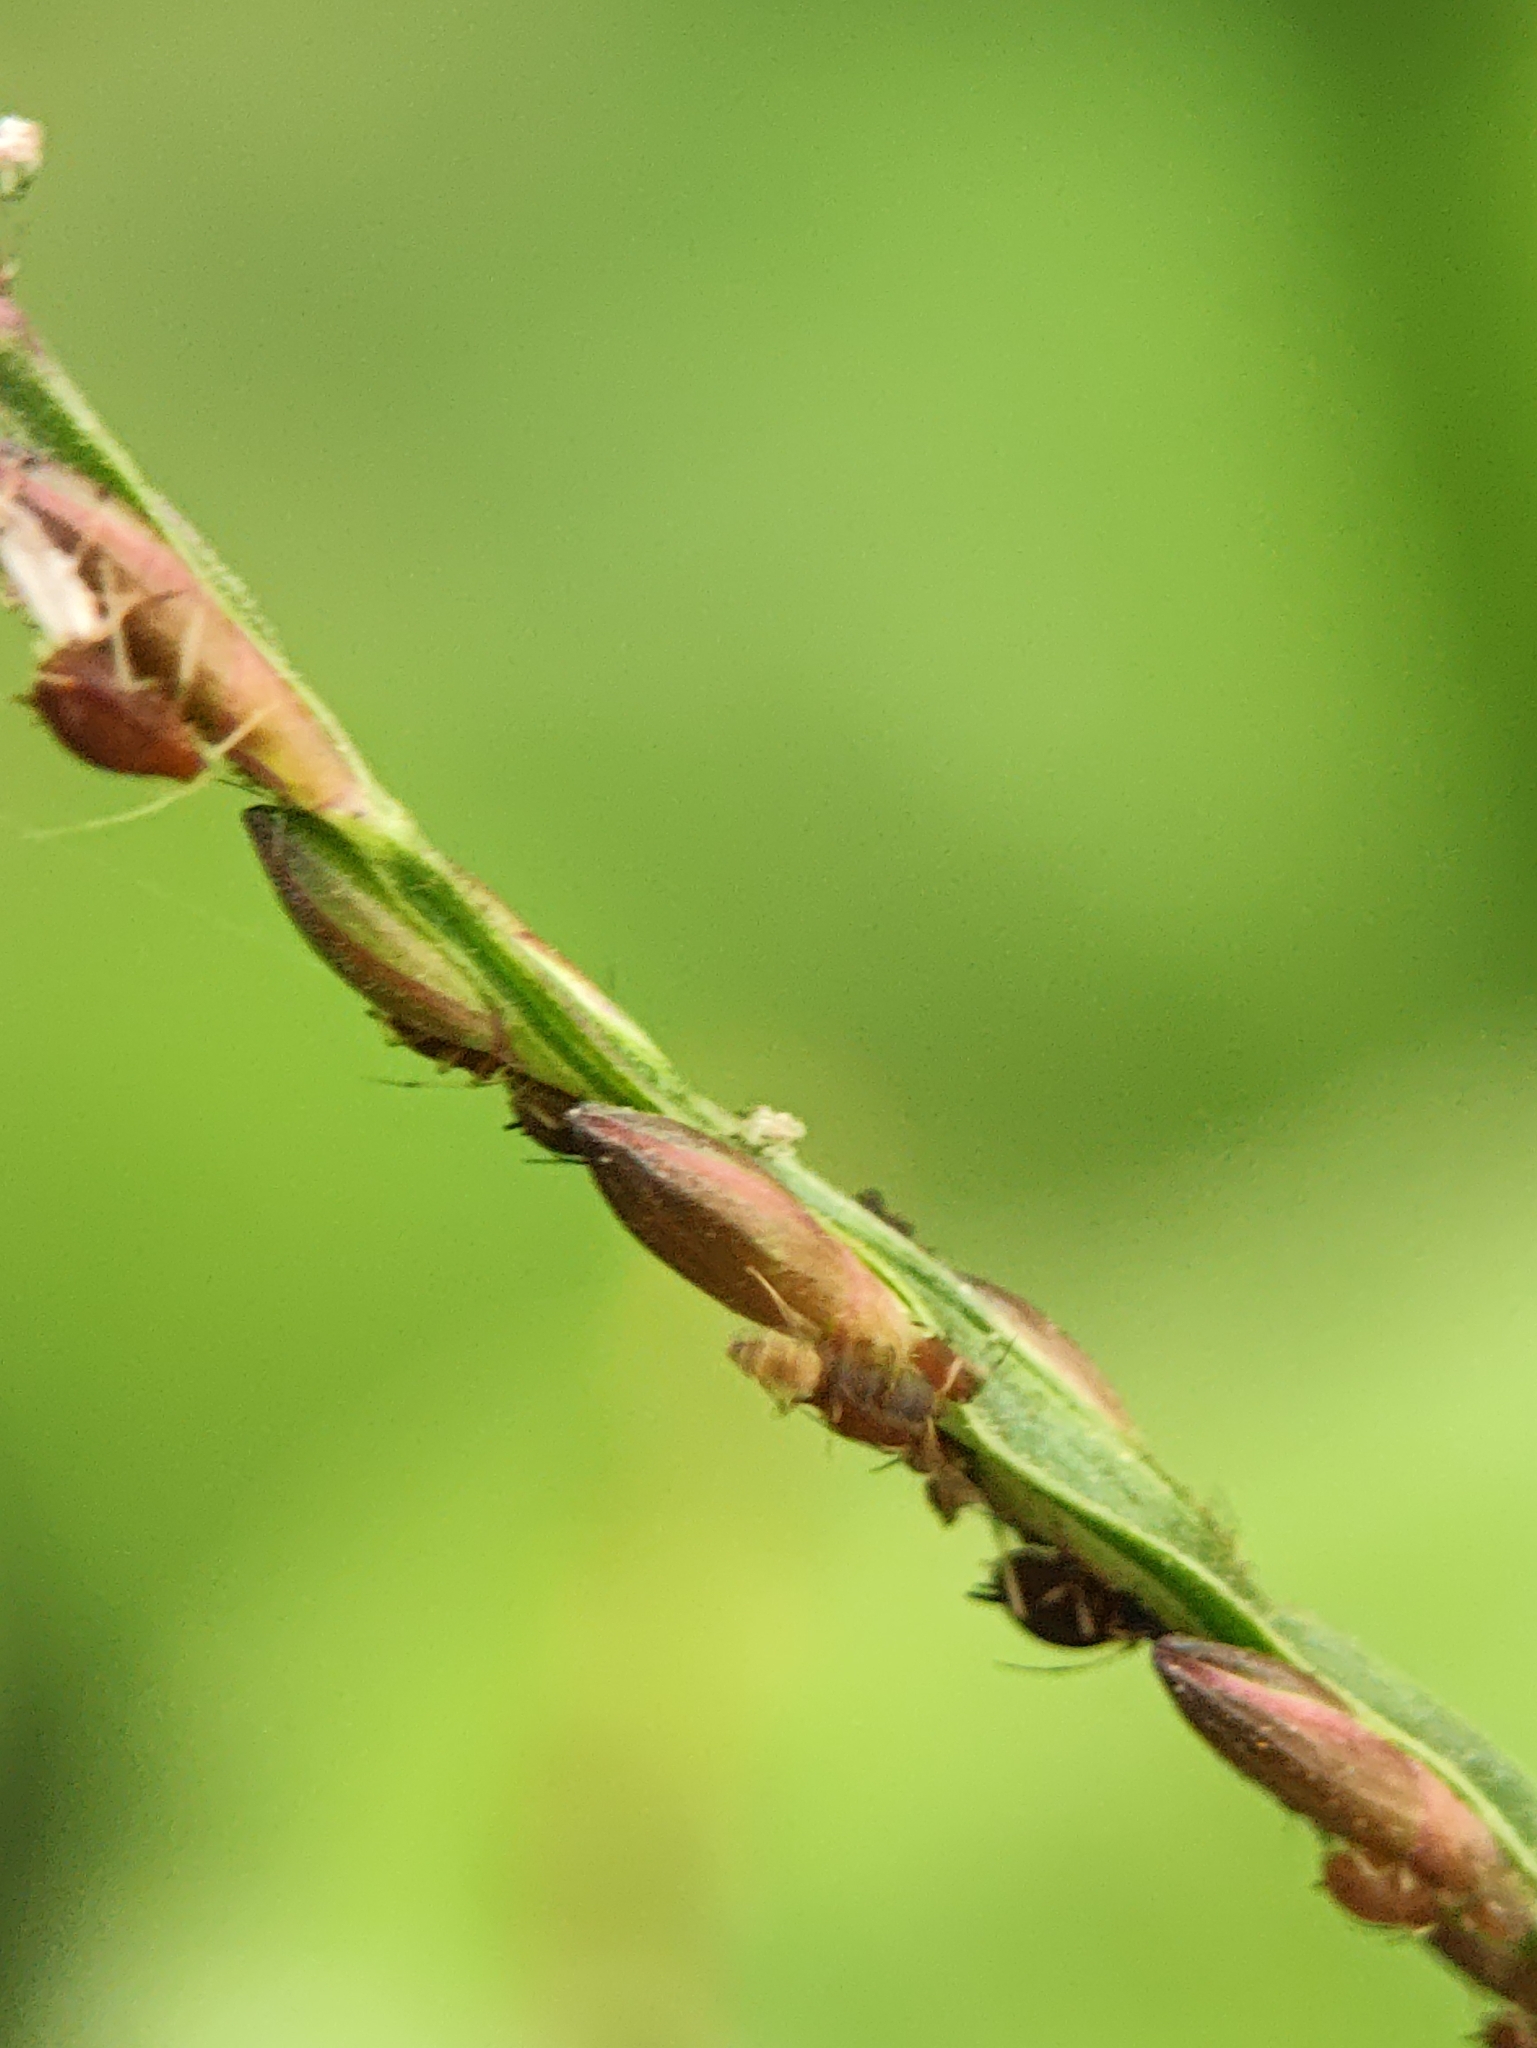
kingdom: Animalia
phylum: Arthropoda
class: Insecta
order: Hymenoptera
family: Formicidae
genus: Tapinoma
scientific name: Tapinoma melanocephalum
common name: Ghost ant
